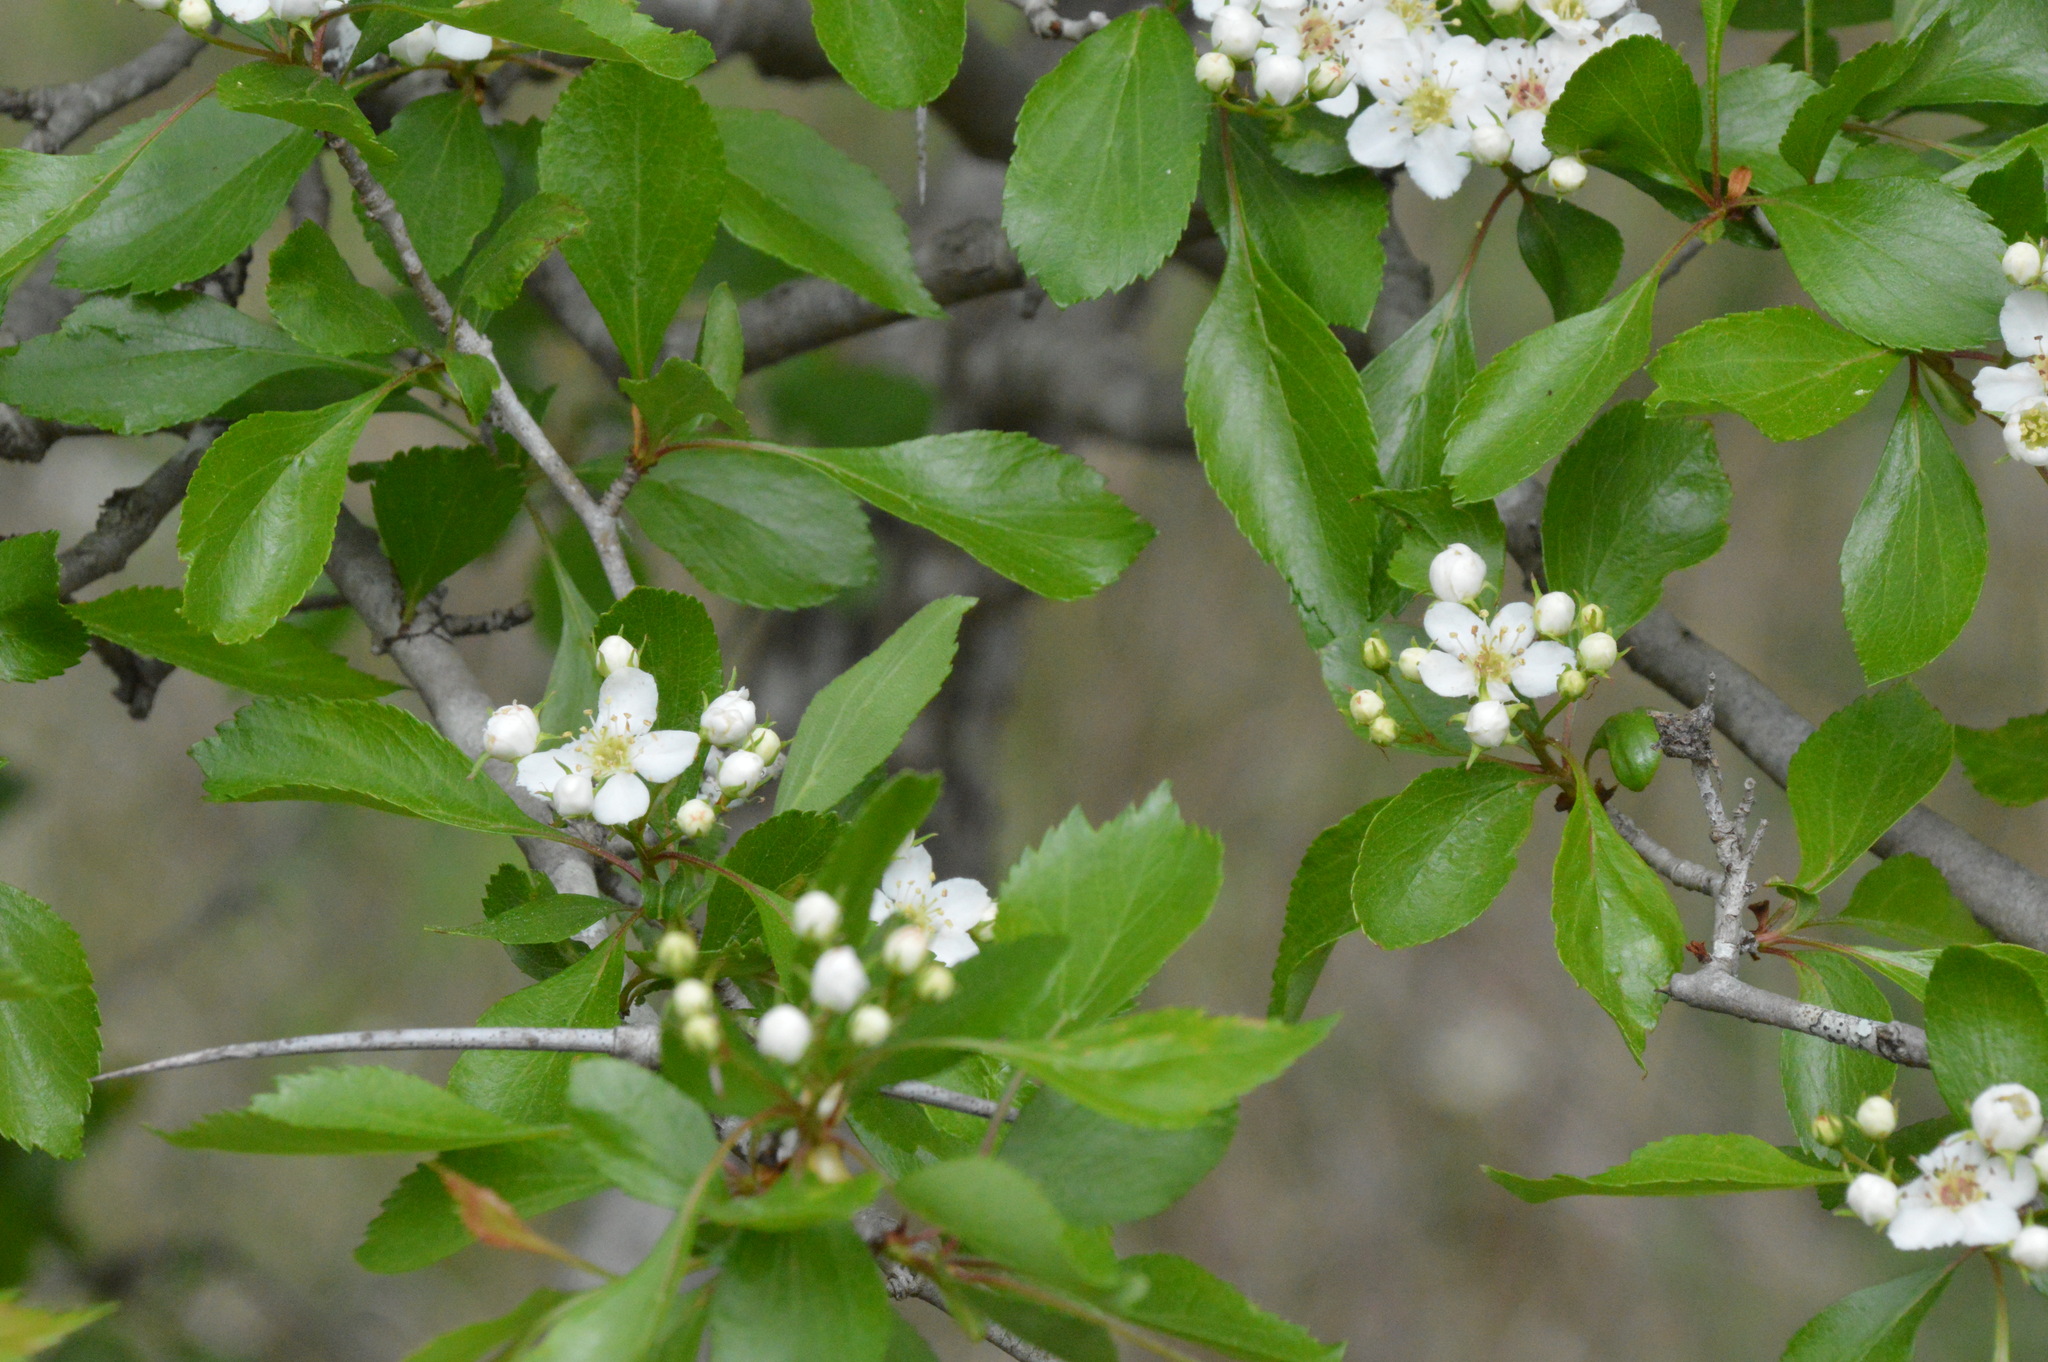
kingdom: Plantae
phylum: Tracheophyta
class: Magnoliopsida
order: Rosales
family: Rosaceae
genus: Crataegus
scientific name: Crataegus viridis
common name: Southernthorn
